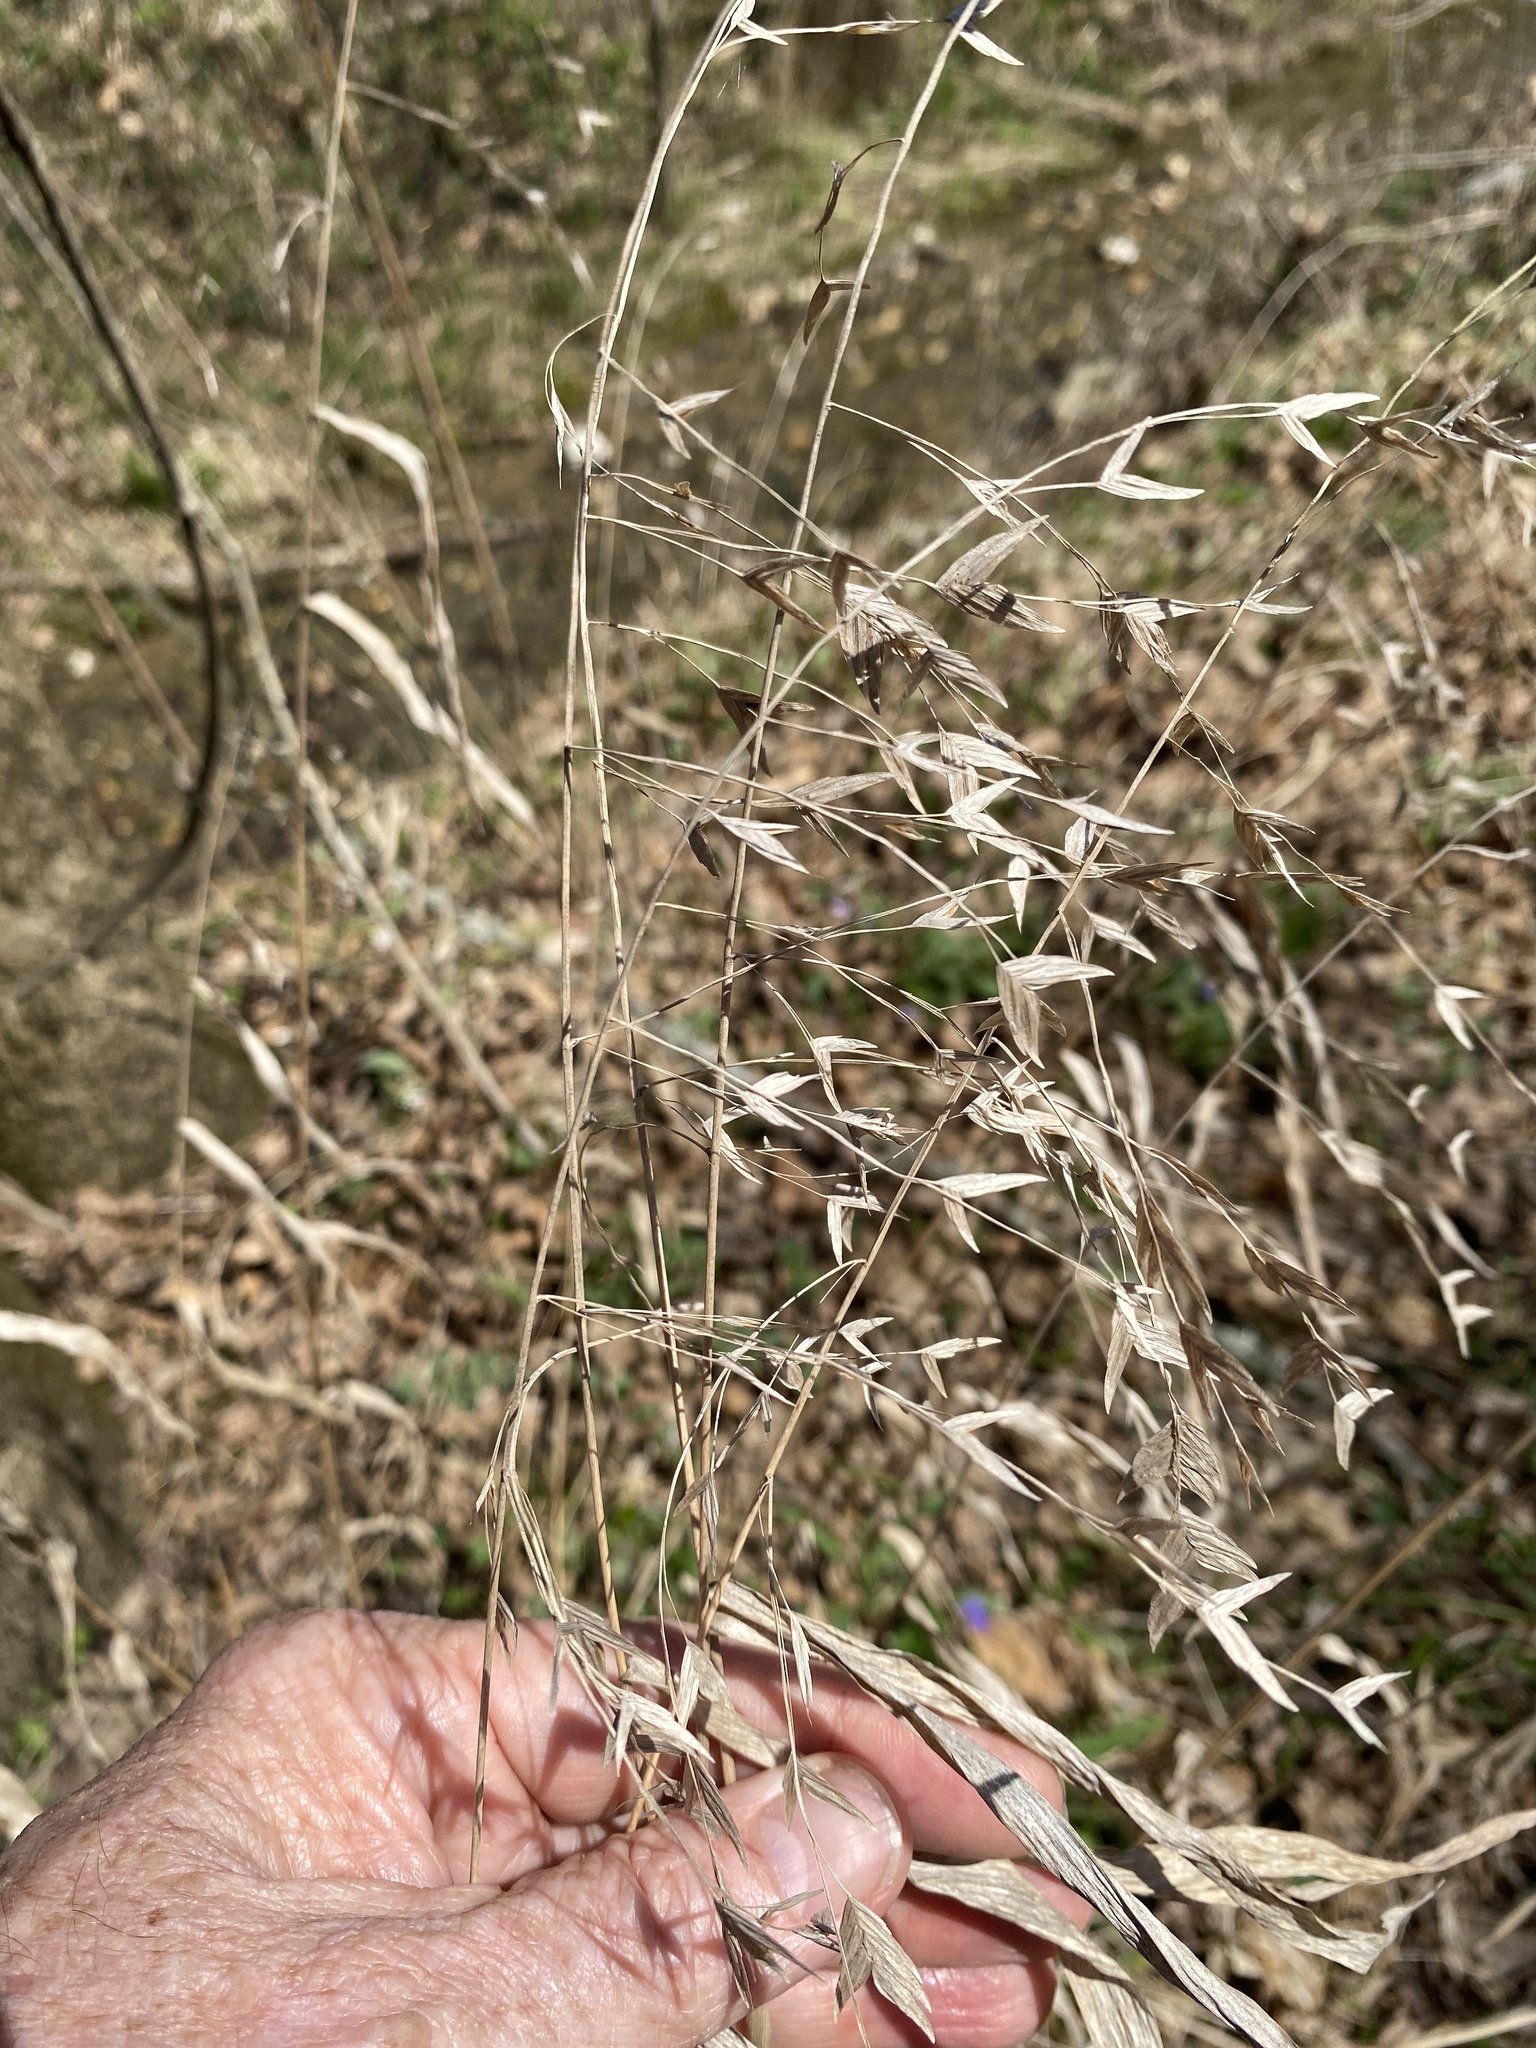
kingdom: Plantae
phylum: Tracheophyta
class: Liliopsida
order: Poales
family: Poaceae
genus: Chasmanthium
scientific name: Chasmanthium latifolium
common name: Broad-leaved chasmanthium
